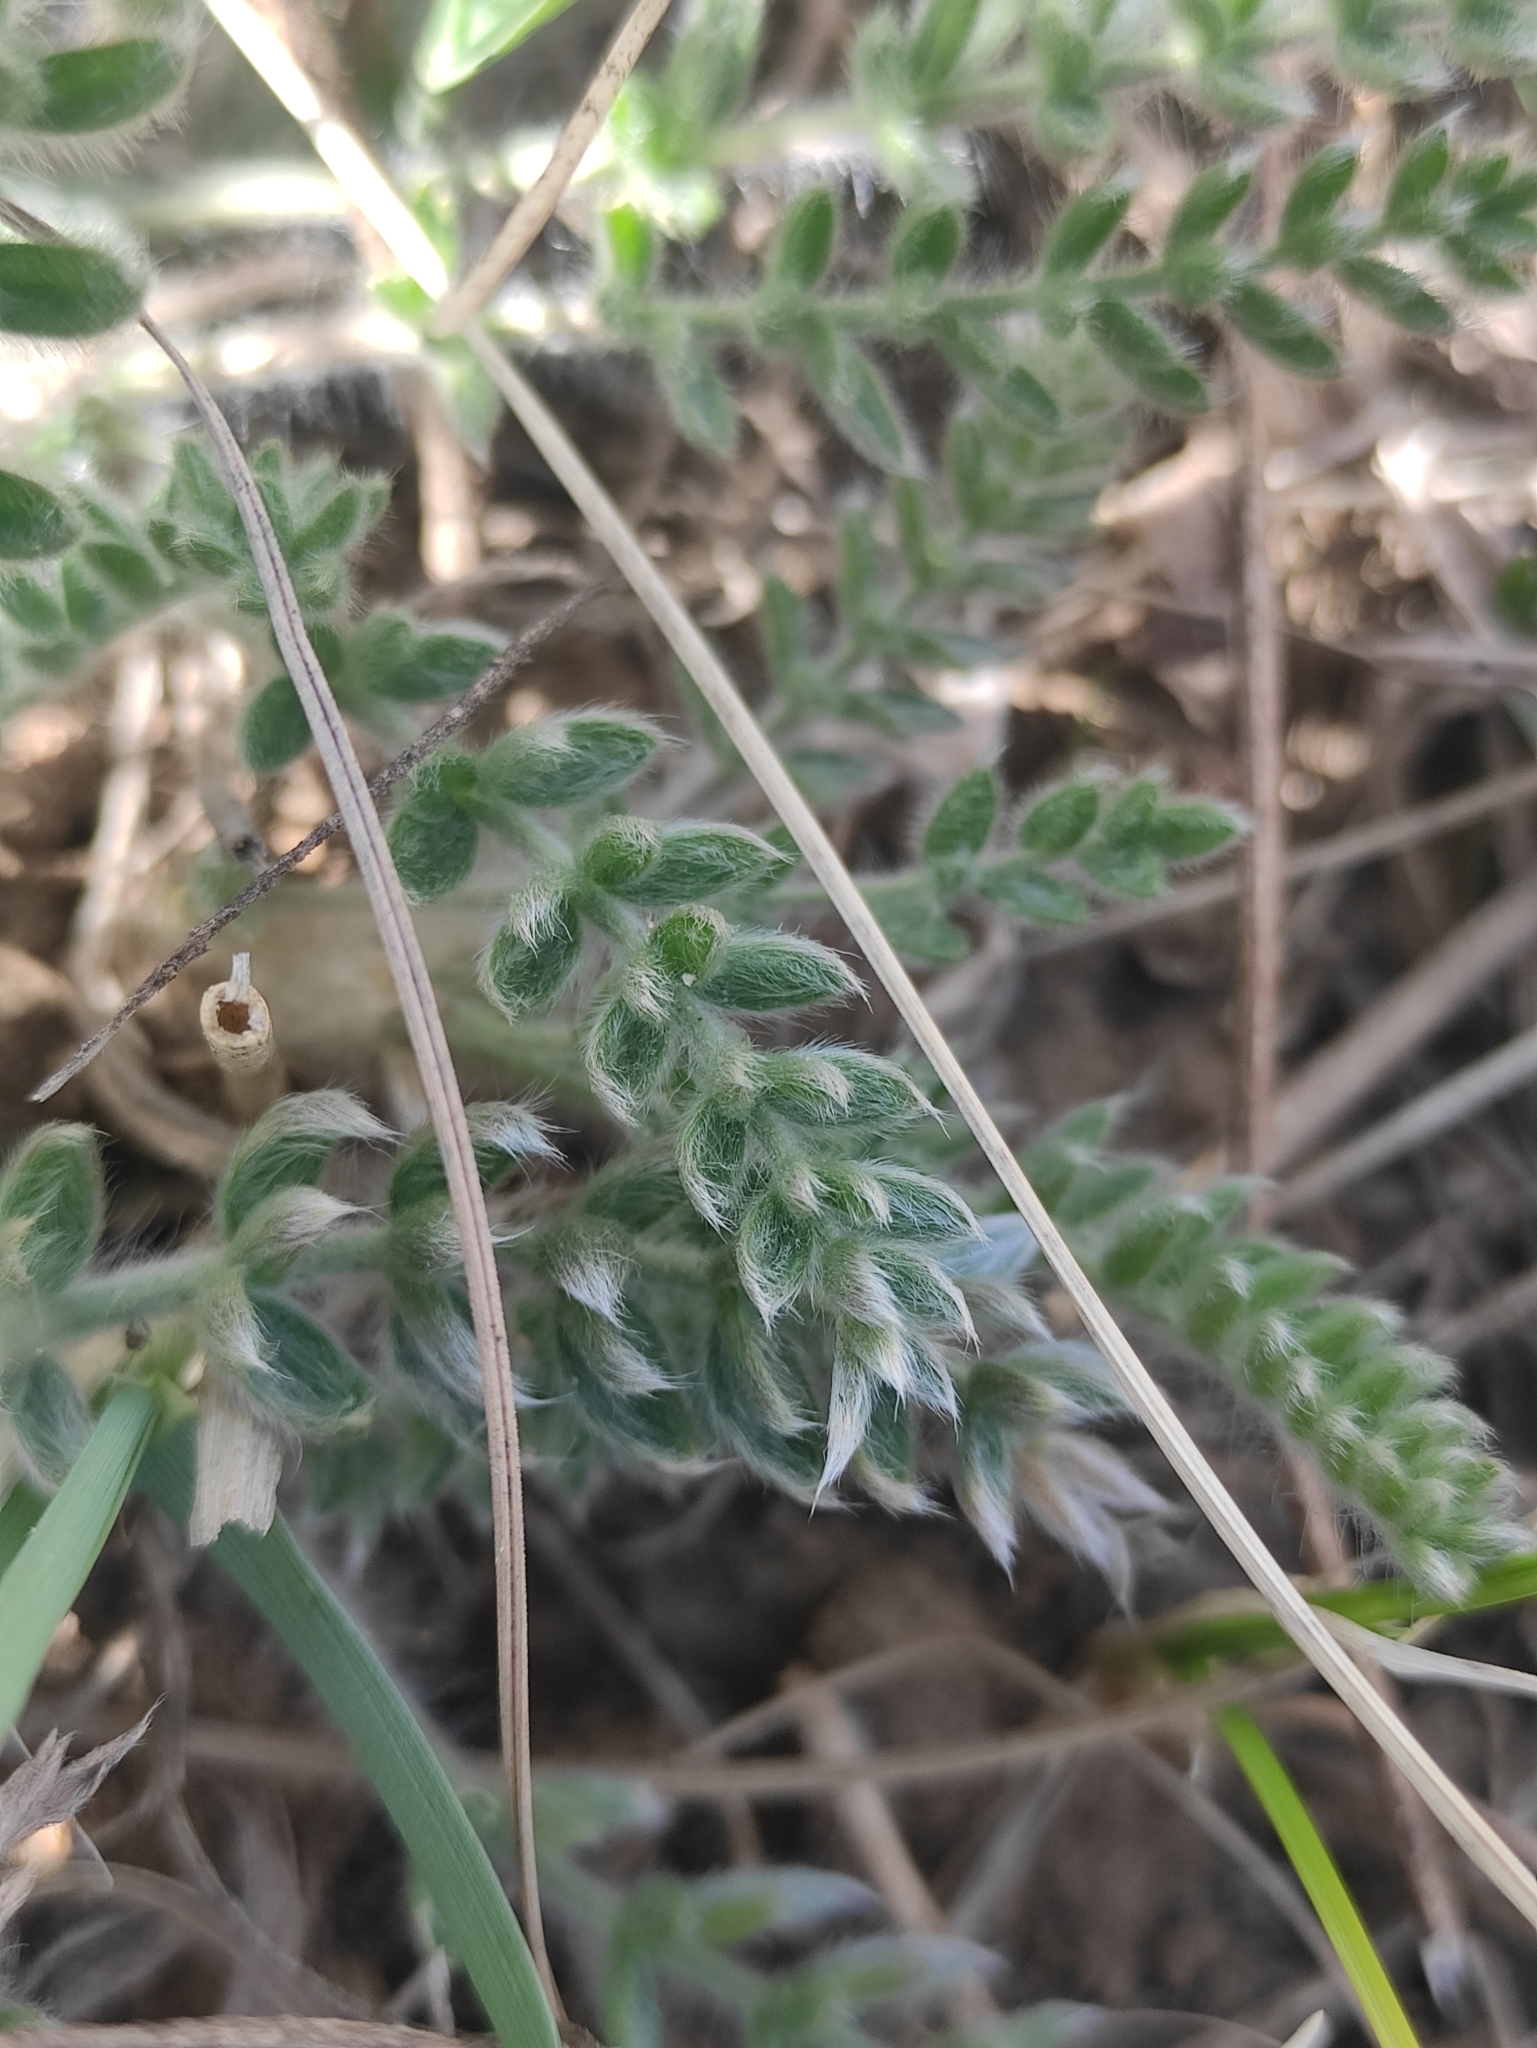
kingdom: Plantae
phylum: Tracheophyta
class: Magnoliopsida
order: Fabales
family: Fabaceae
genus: Oxytropis
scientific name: Oxytropis turczaninovii
